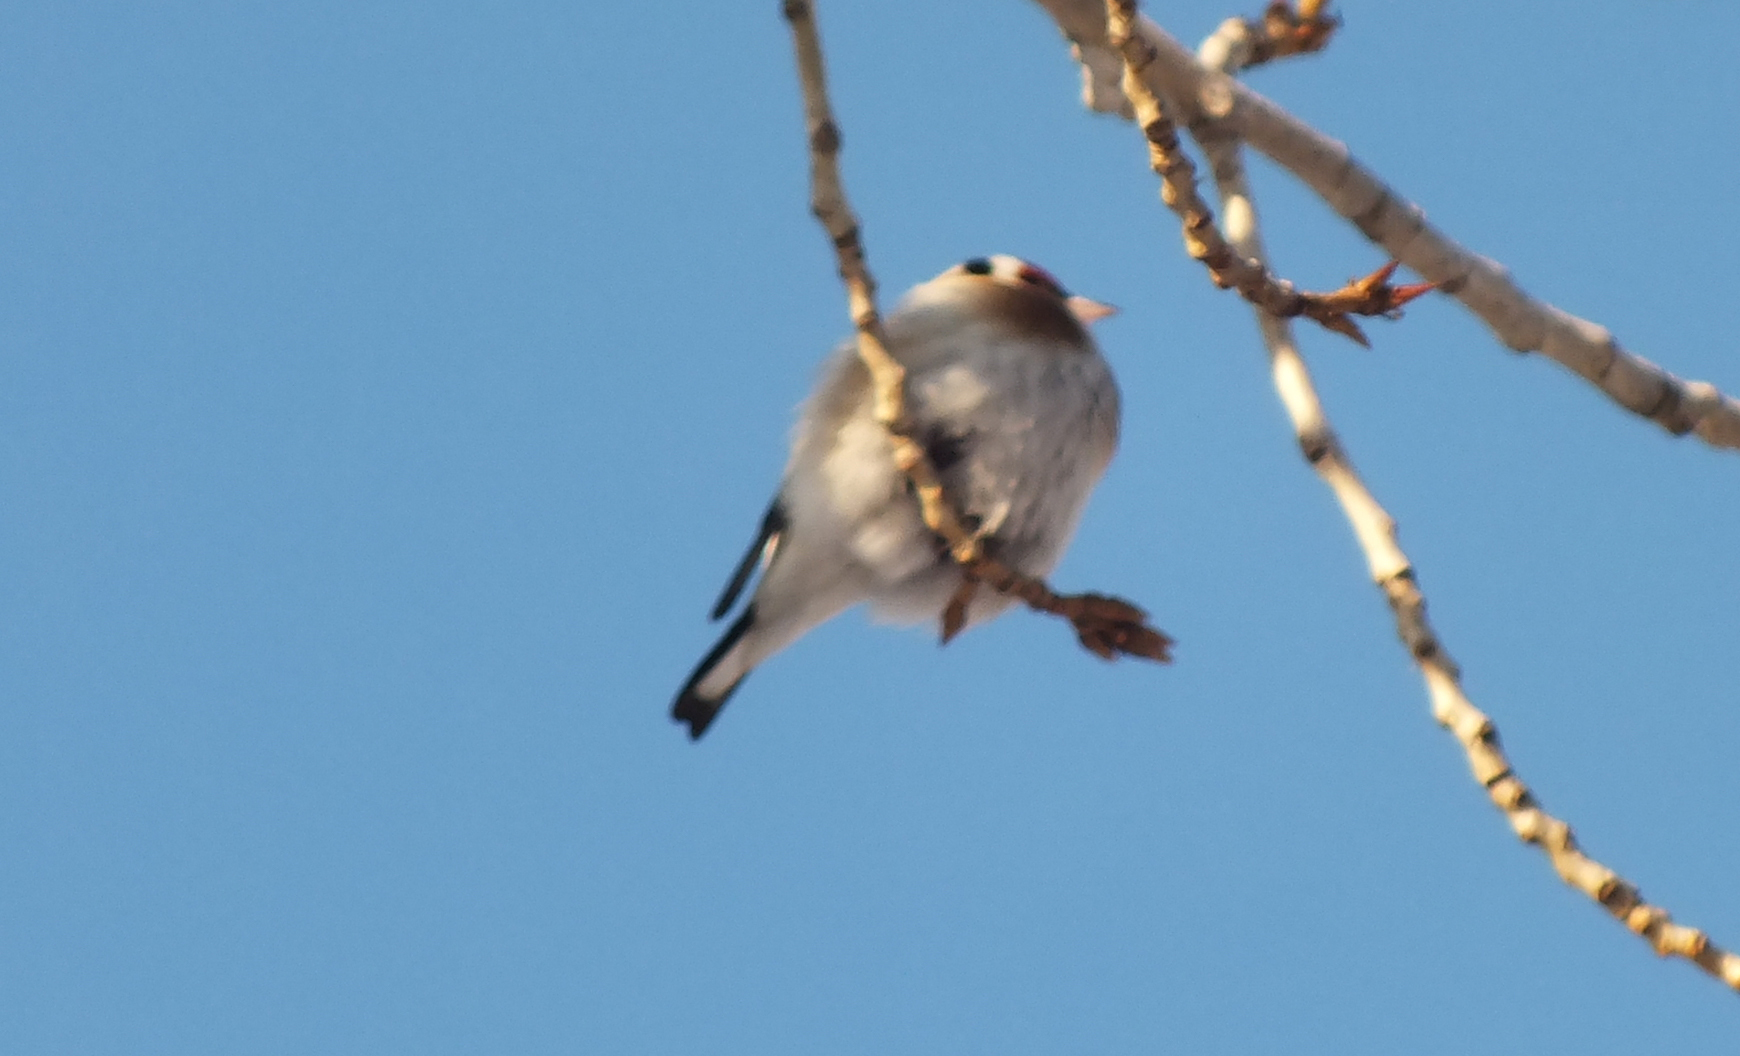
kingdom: Animalia
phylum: Chordata
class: Aves
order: Passeriformes
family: Fringillidae
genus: Carduelis
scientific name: Carduelis carduelis
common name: European goldfinch
